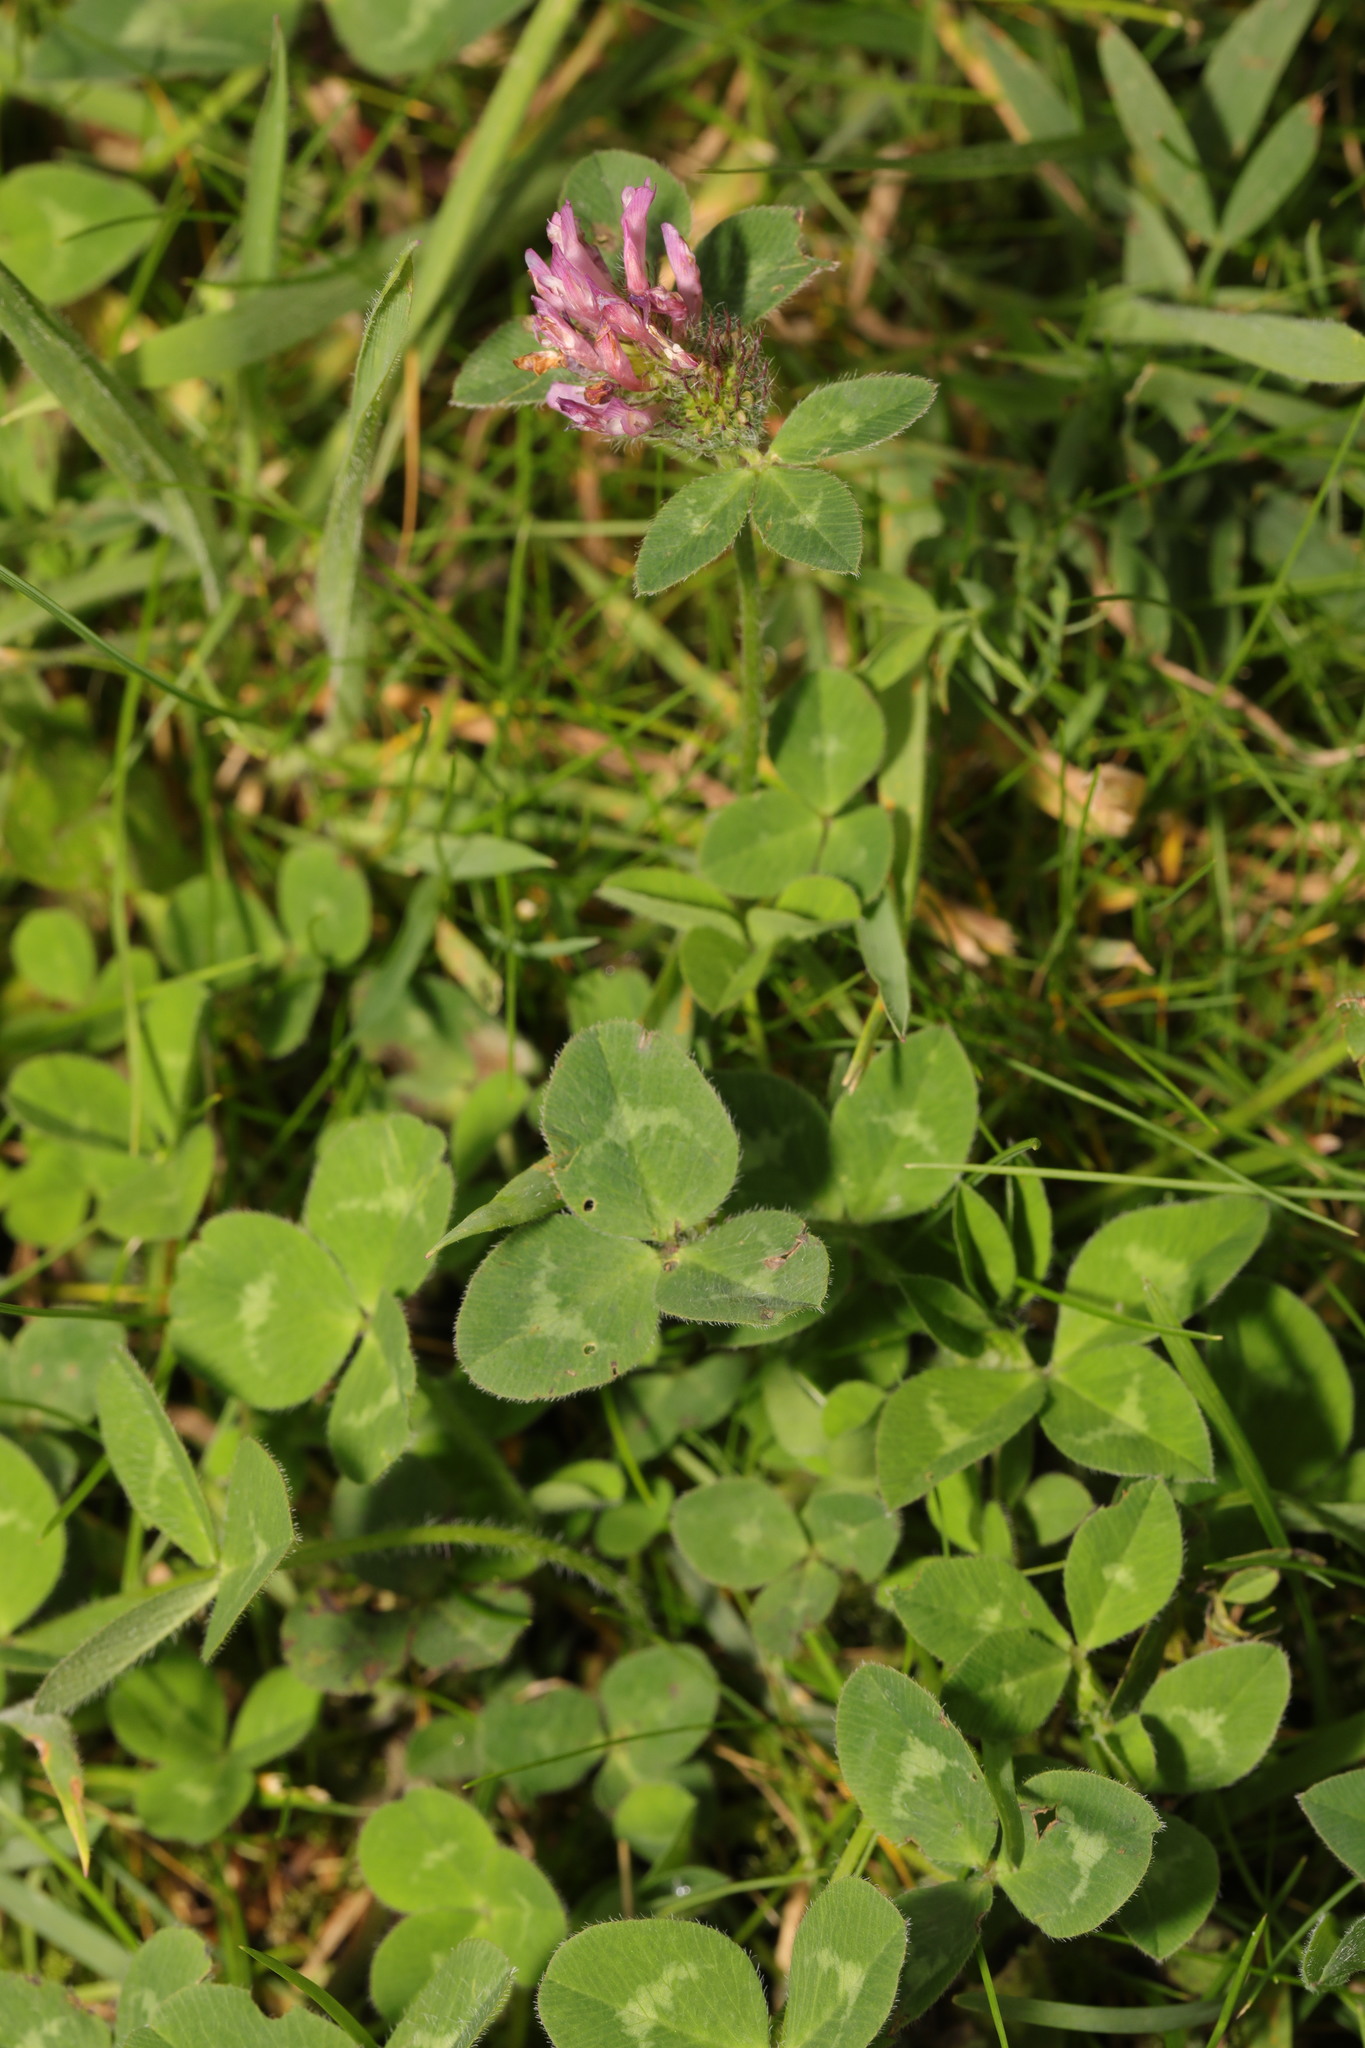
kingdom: Plantae
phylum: Tracheophyta
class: Magnoliopsida
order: Fabales
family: Fabaceae
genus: Trifolium
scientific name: Trifolium pratense
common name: Red clover
